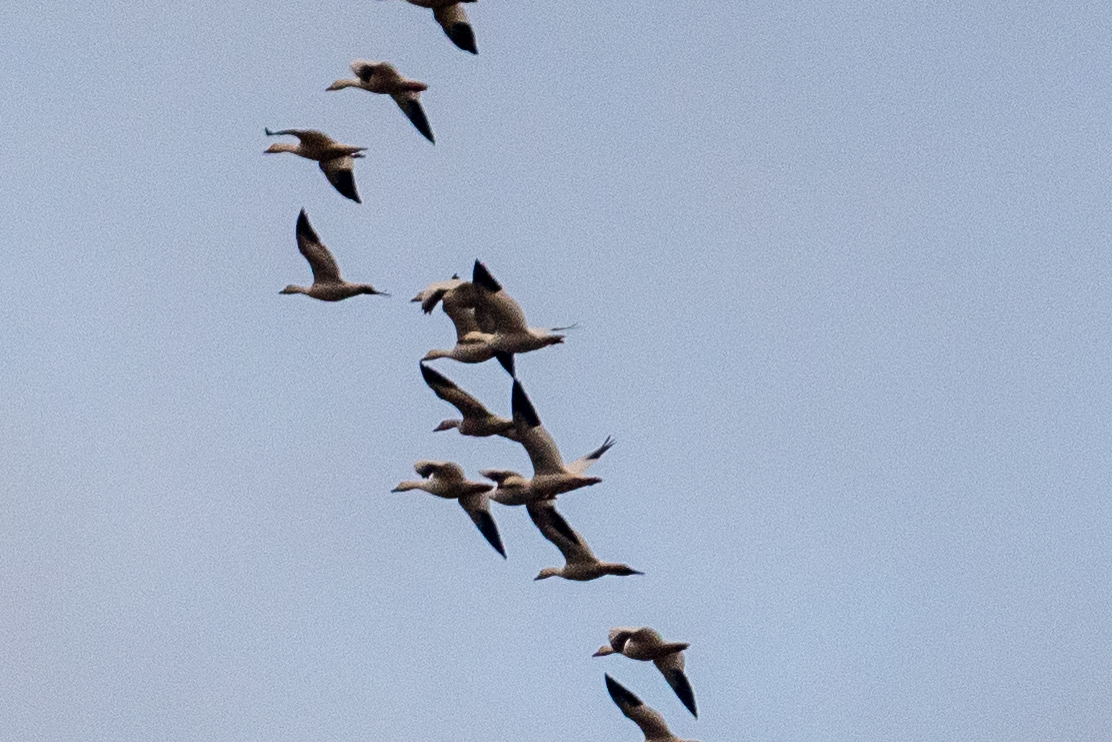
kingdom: Animalia
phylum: Chordata
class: Aves
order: Anseriformes
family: Anatidae
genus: Anser
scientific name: Anser caerulescens
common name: Snow goose
